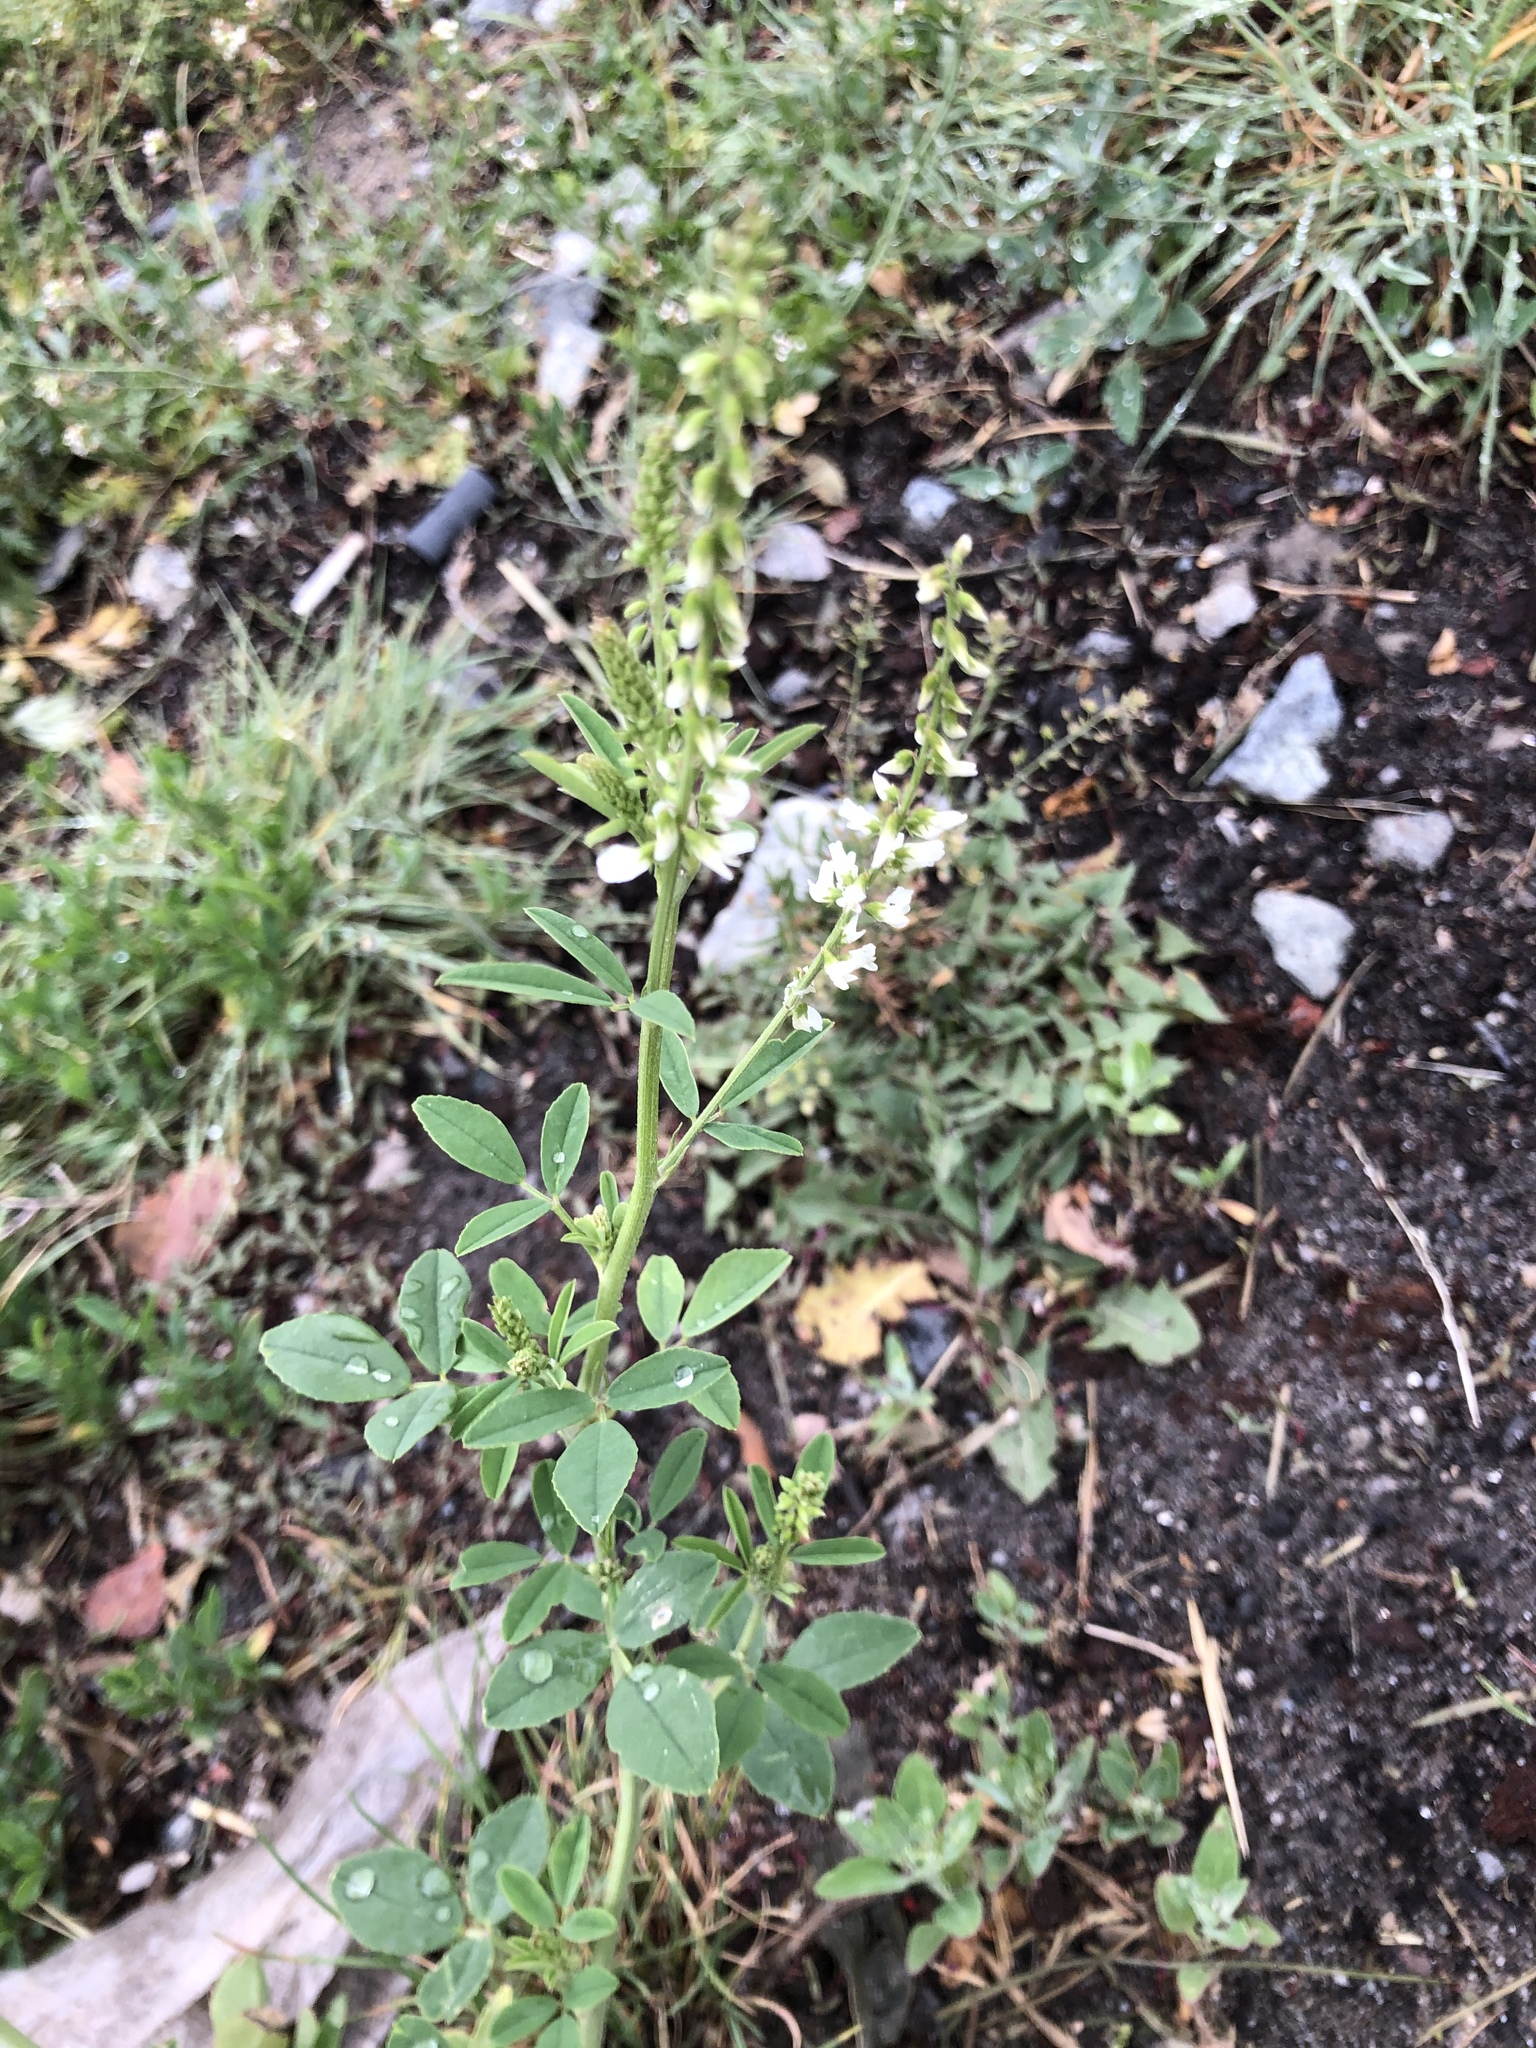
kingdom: Plantae
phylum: Tracheophyta
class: Magnoliopsida
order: Fabales
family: Fabaceae
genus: Melilotus
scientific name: Melilotus albus
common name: White melilot
